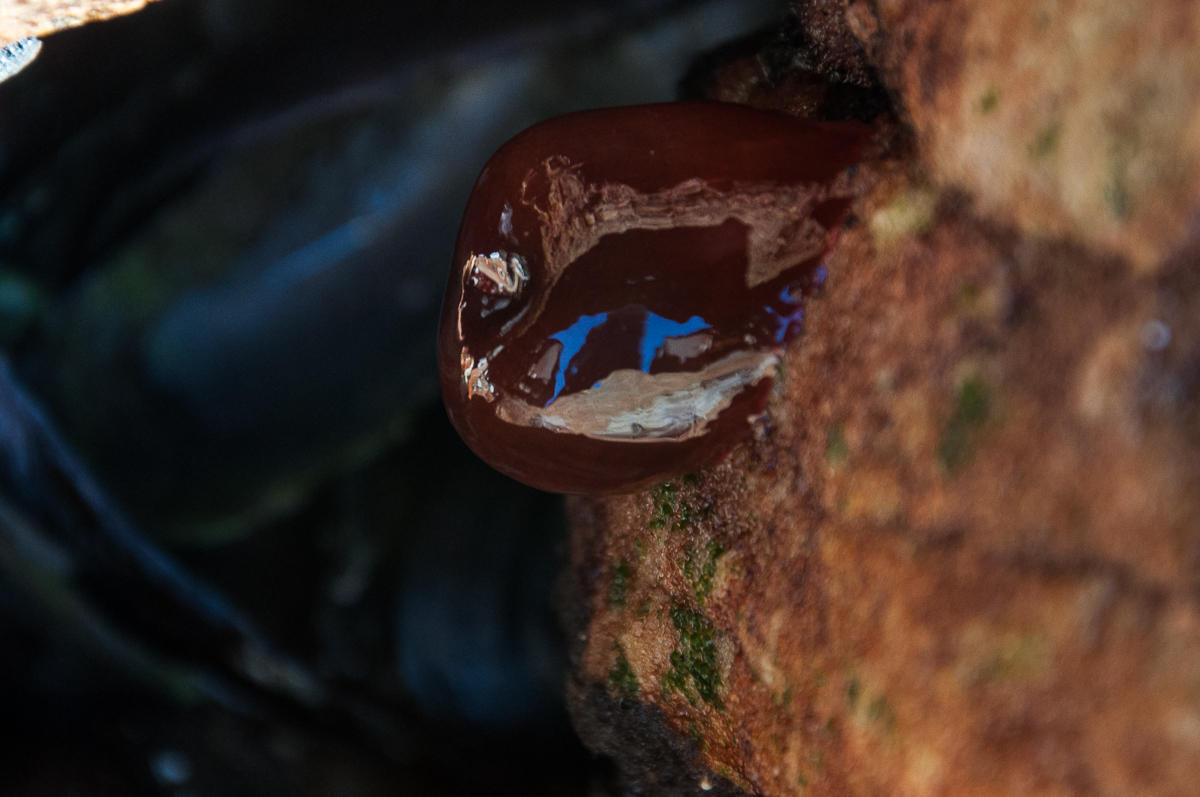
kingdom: Animalia
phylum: Cnidaria
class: Anthozoa
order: Actiniaria
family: Actiniidae
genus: Actinia
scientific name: Actinia ebhayiensis
